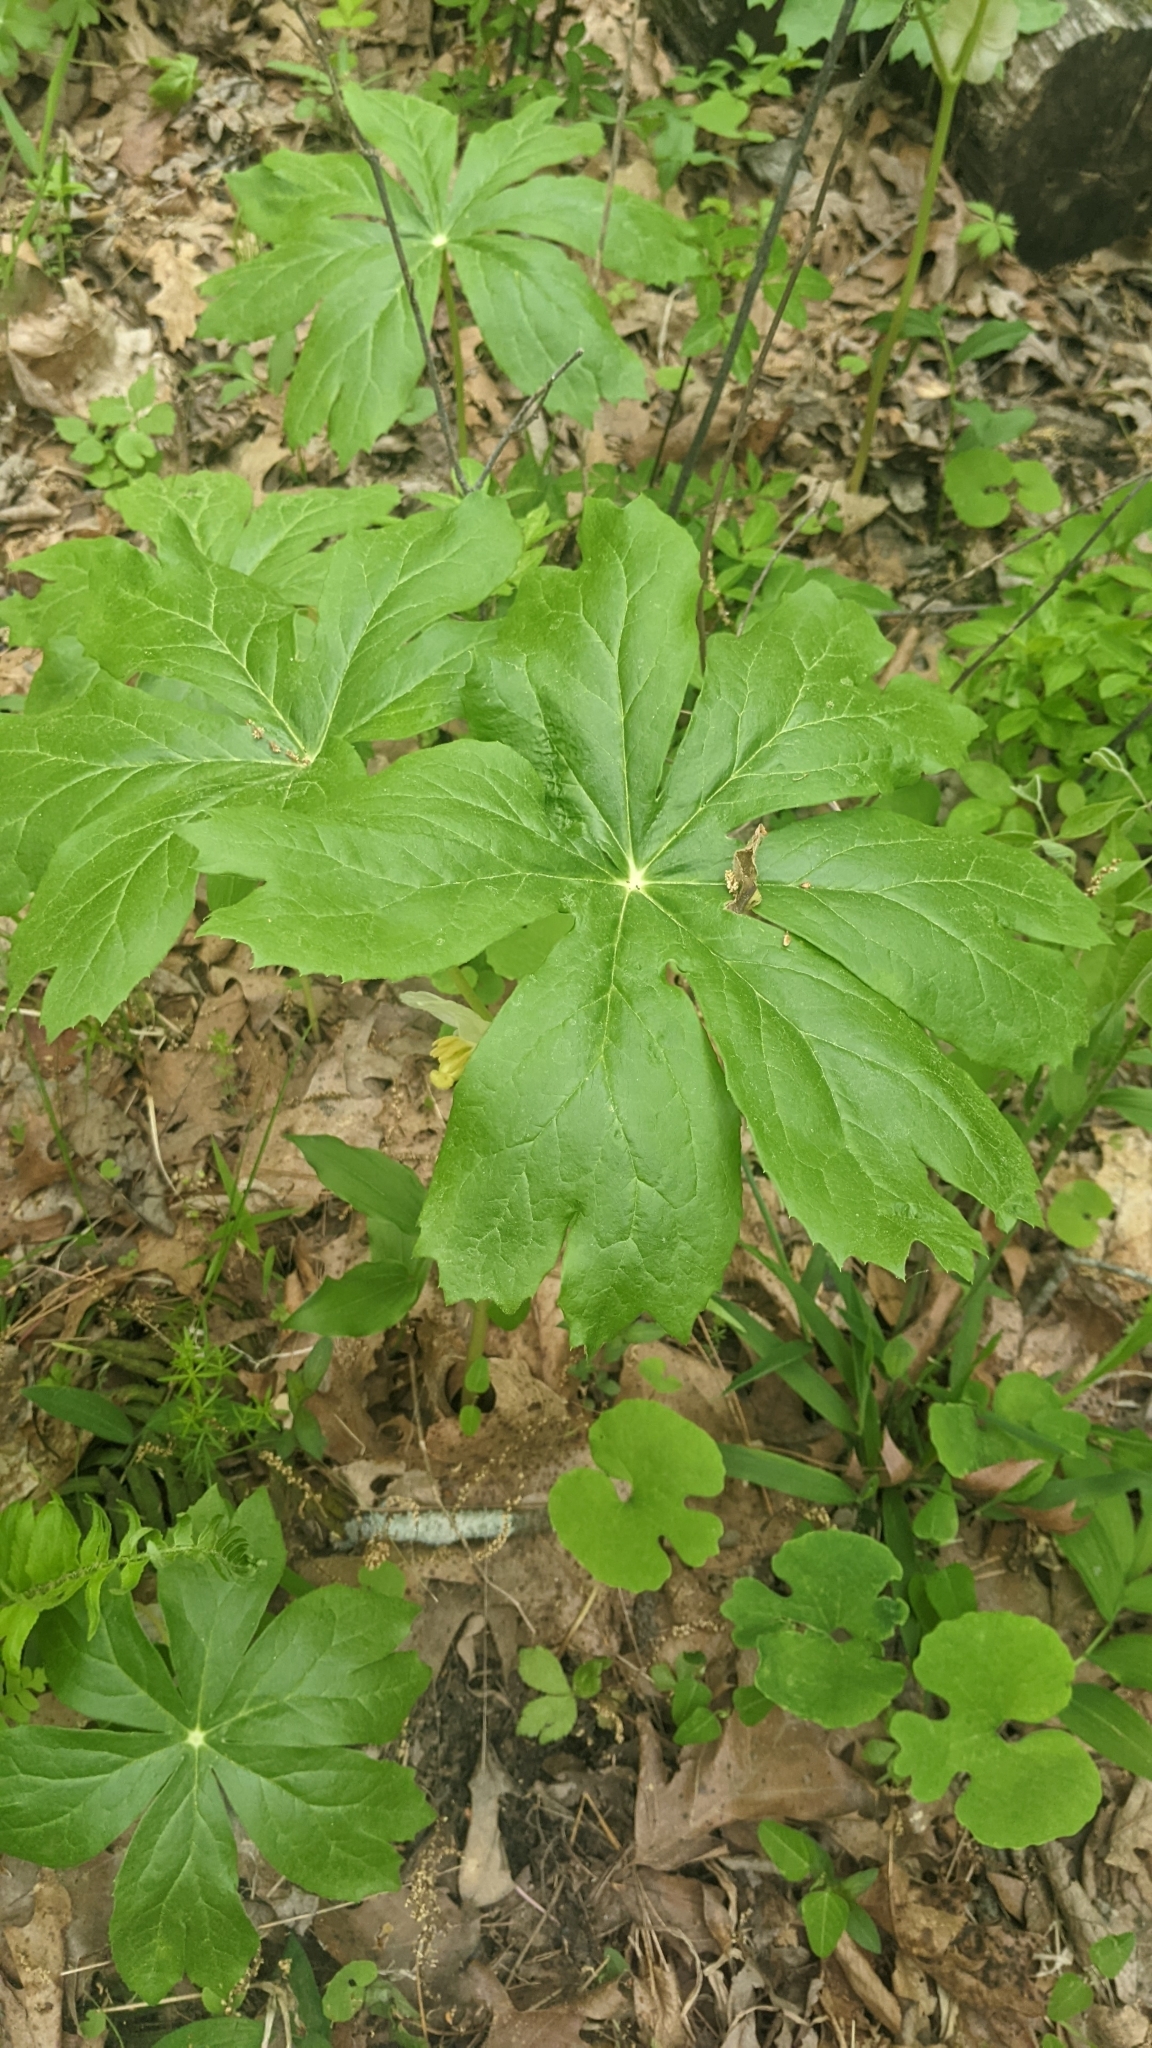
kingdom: Plantae
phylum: Tracheophyta
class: Magnoliopsida
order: Ranunculales
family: Berberidaceae
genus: Podophyllum
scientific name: Podophyllum peltatum
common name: Wild mandrake
